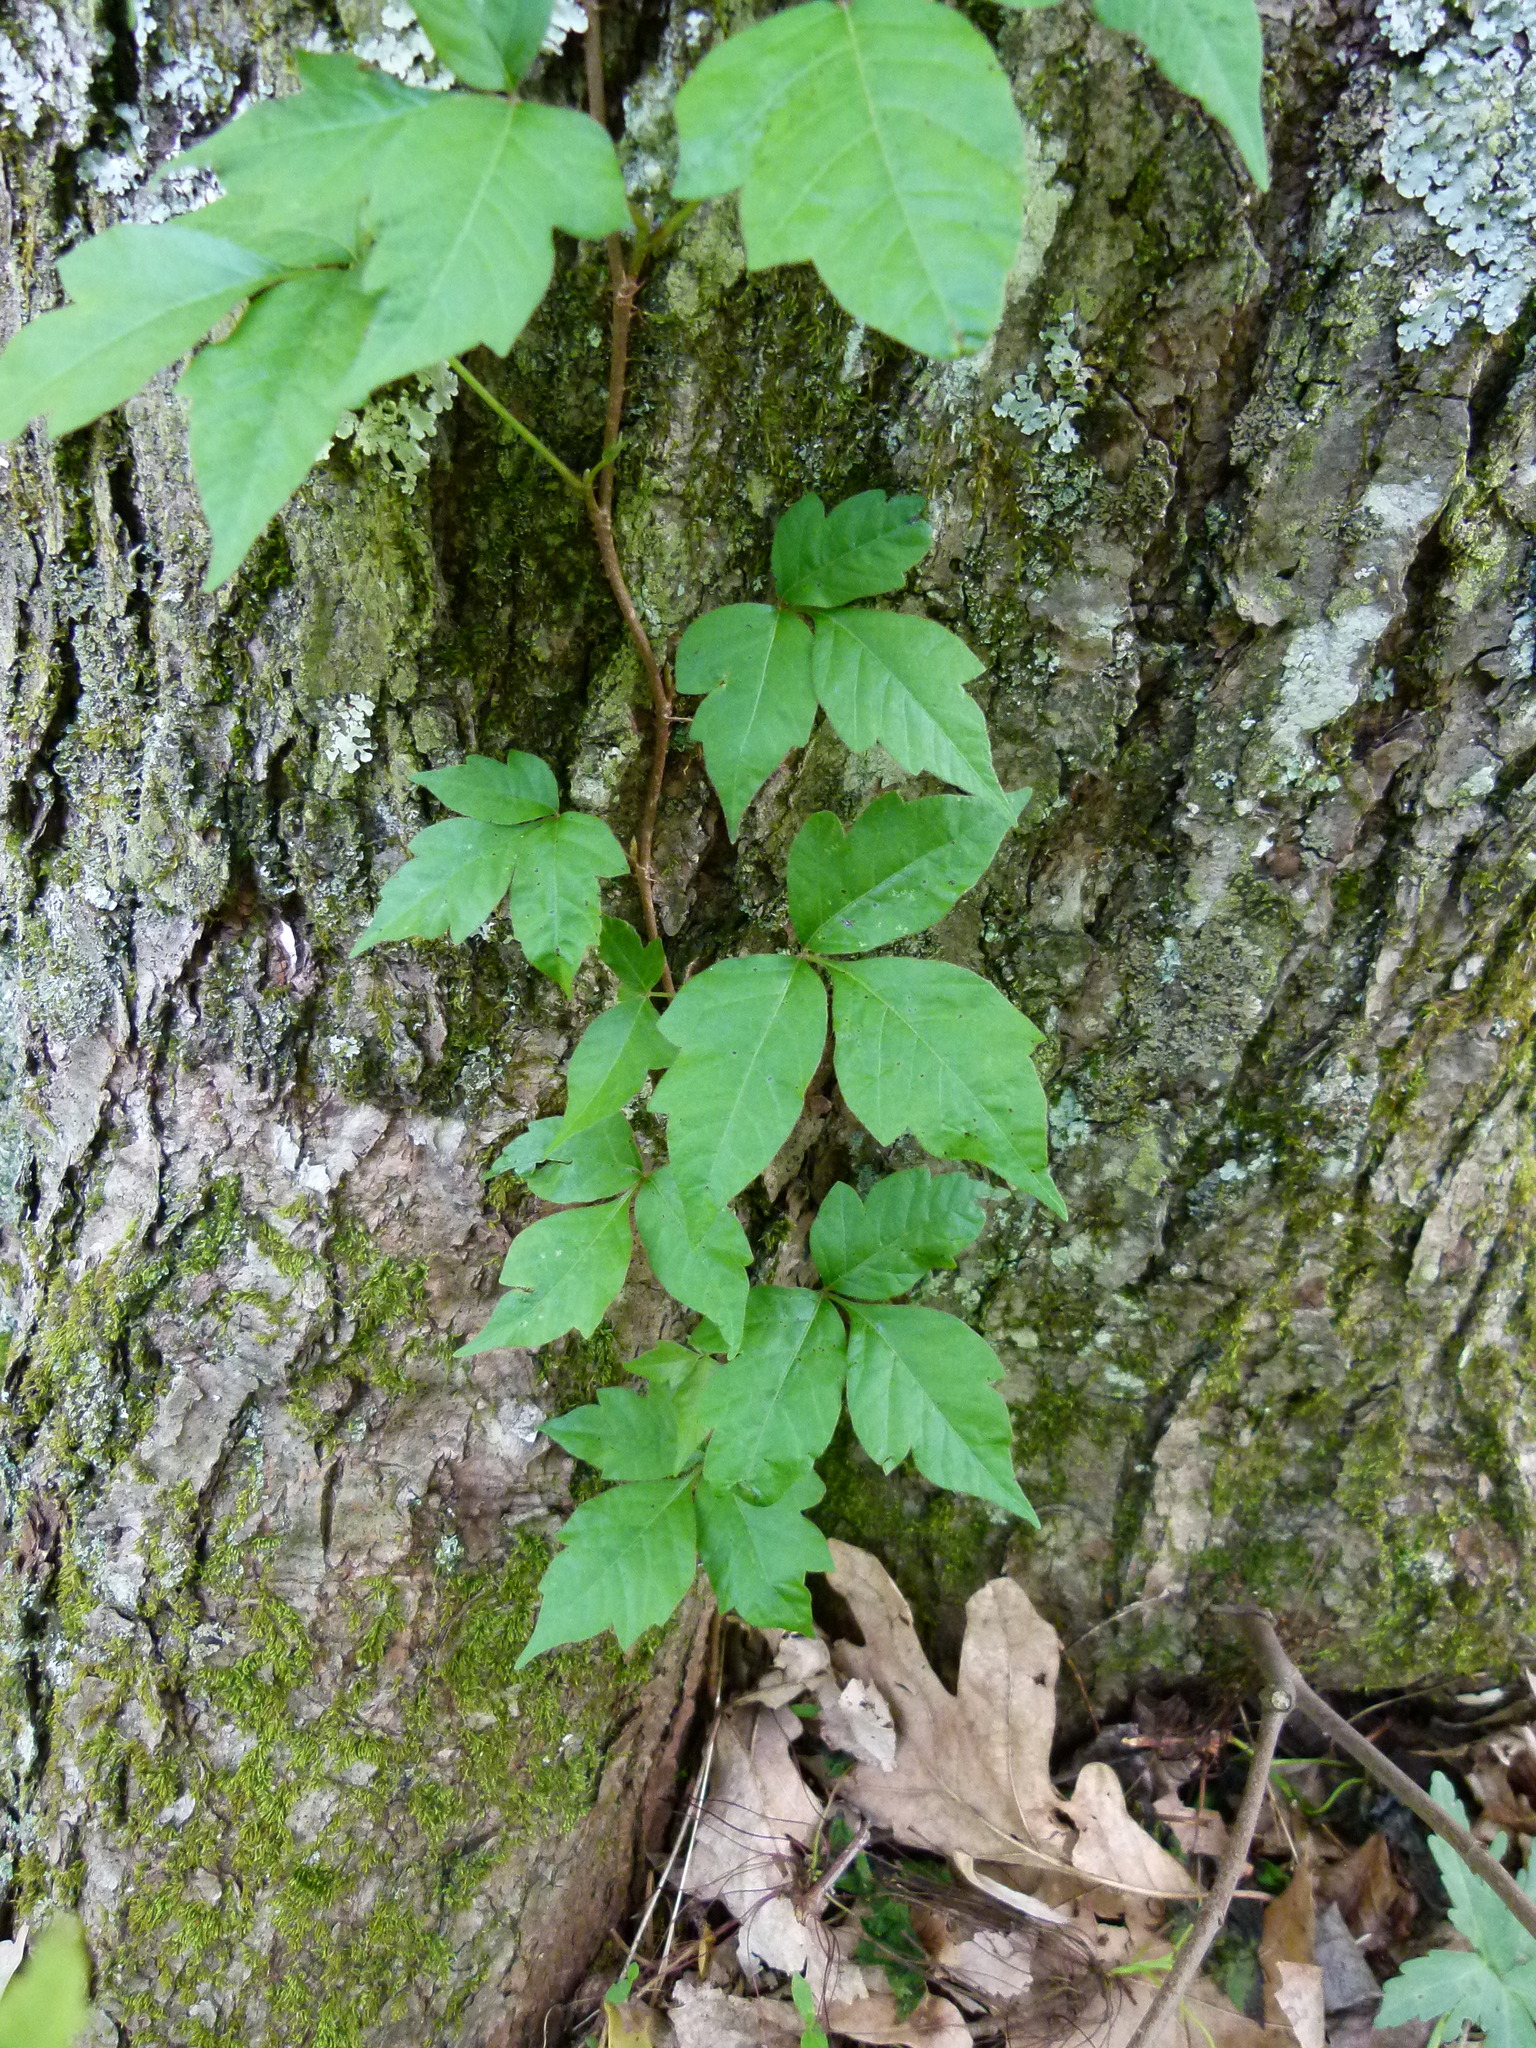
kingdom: Plantae
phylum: Tracheophyta
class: Magnoliopsida
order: Sapindales
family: Anacardiaceae
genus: Toxicodendron
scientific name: Toxicodendron radicans
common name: Poison ivy
